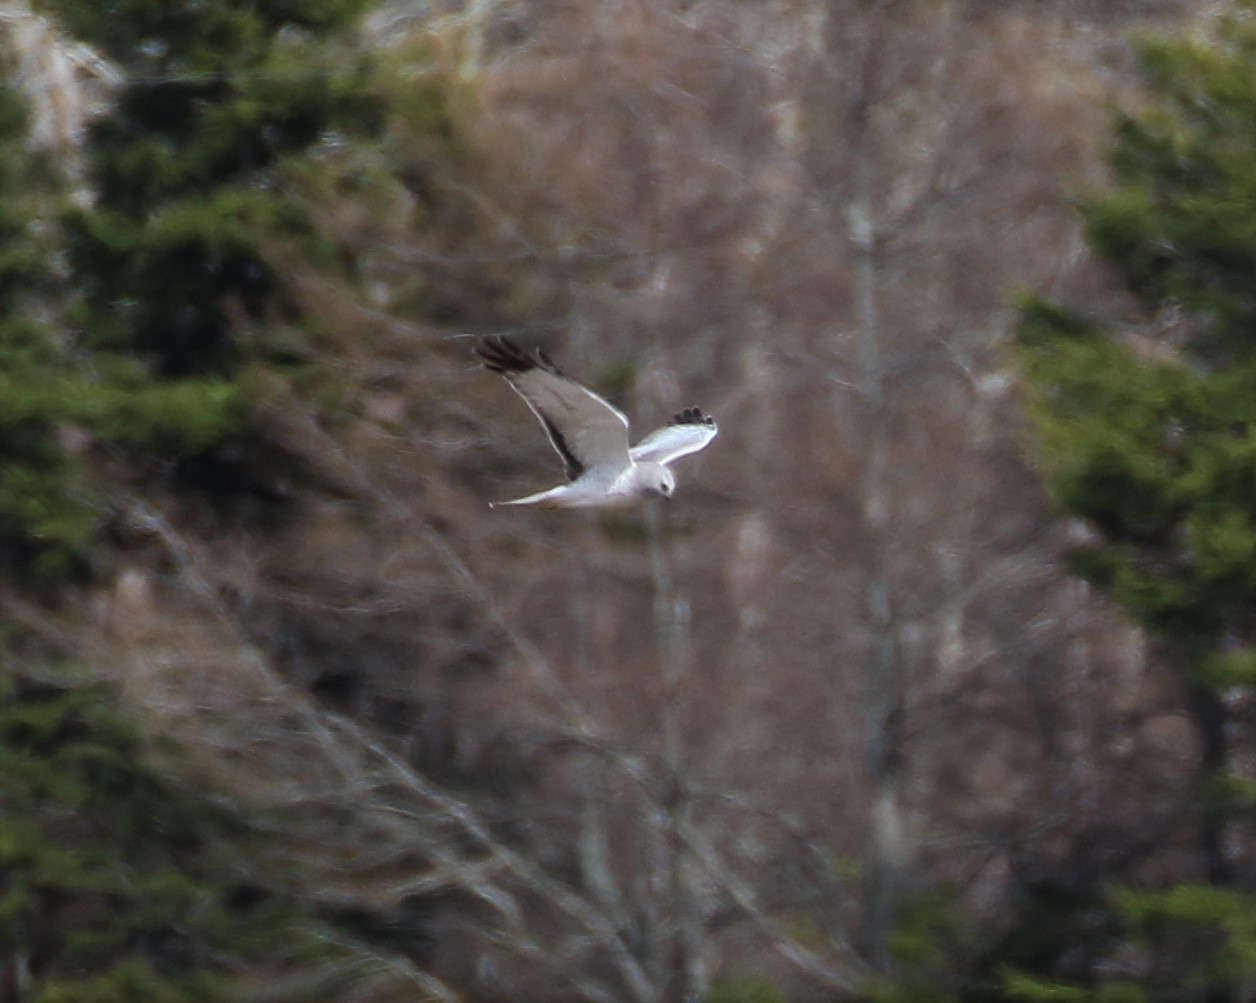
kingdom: Animalia
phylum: Chordata
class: Aves
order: Accipitriformes
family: Accipitridae
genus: Circus
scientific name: Circus cyaneus
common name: Hen harrier
